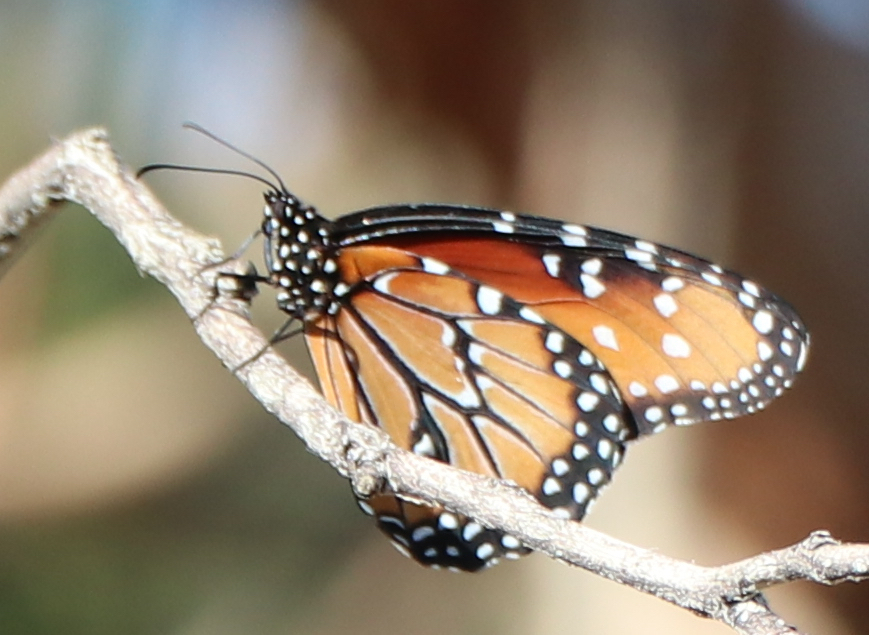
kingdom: Animalia
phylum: Arthropoda
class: Insecta
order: Lepidoptera
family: Nymphalidae
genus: Danaus
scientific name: Danaus gilippus
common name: Queen
